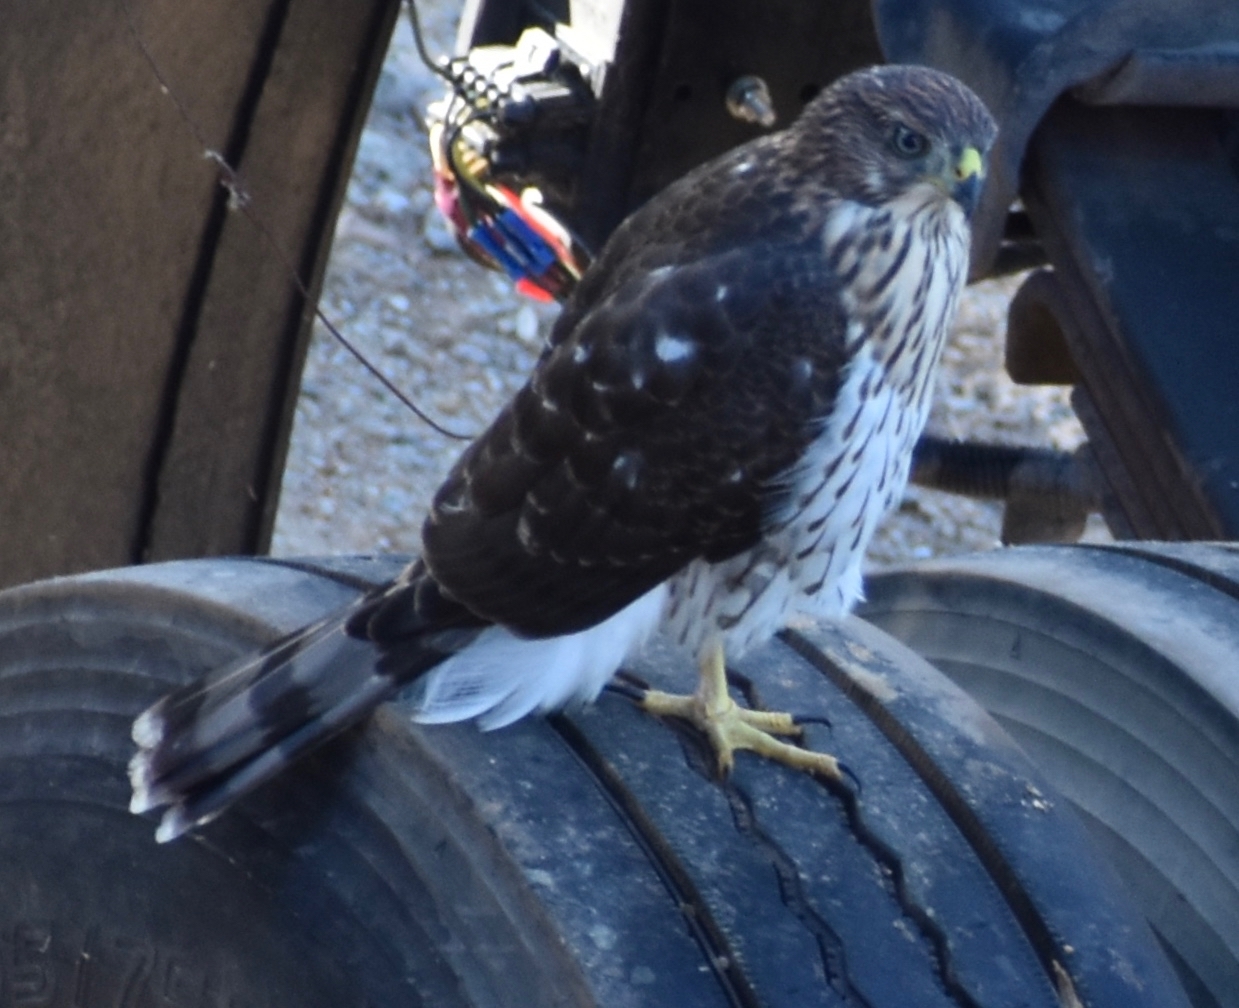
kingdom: Animalia
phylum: Chordata
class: Aves
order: Accipitriformes
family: Accipitridae
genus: Accipiter
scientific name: Accipiter cooperii
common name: Cooper's hawk
